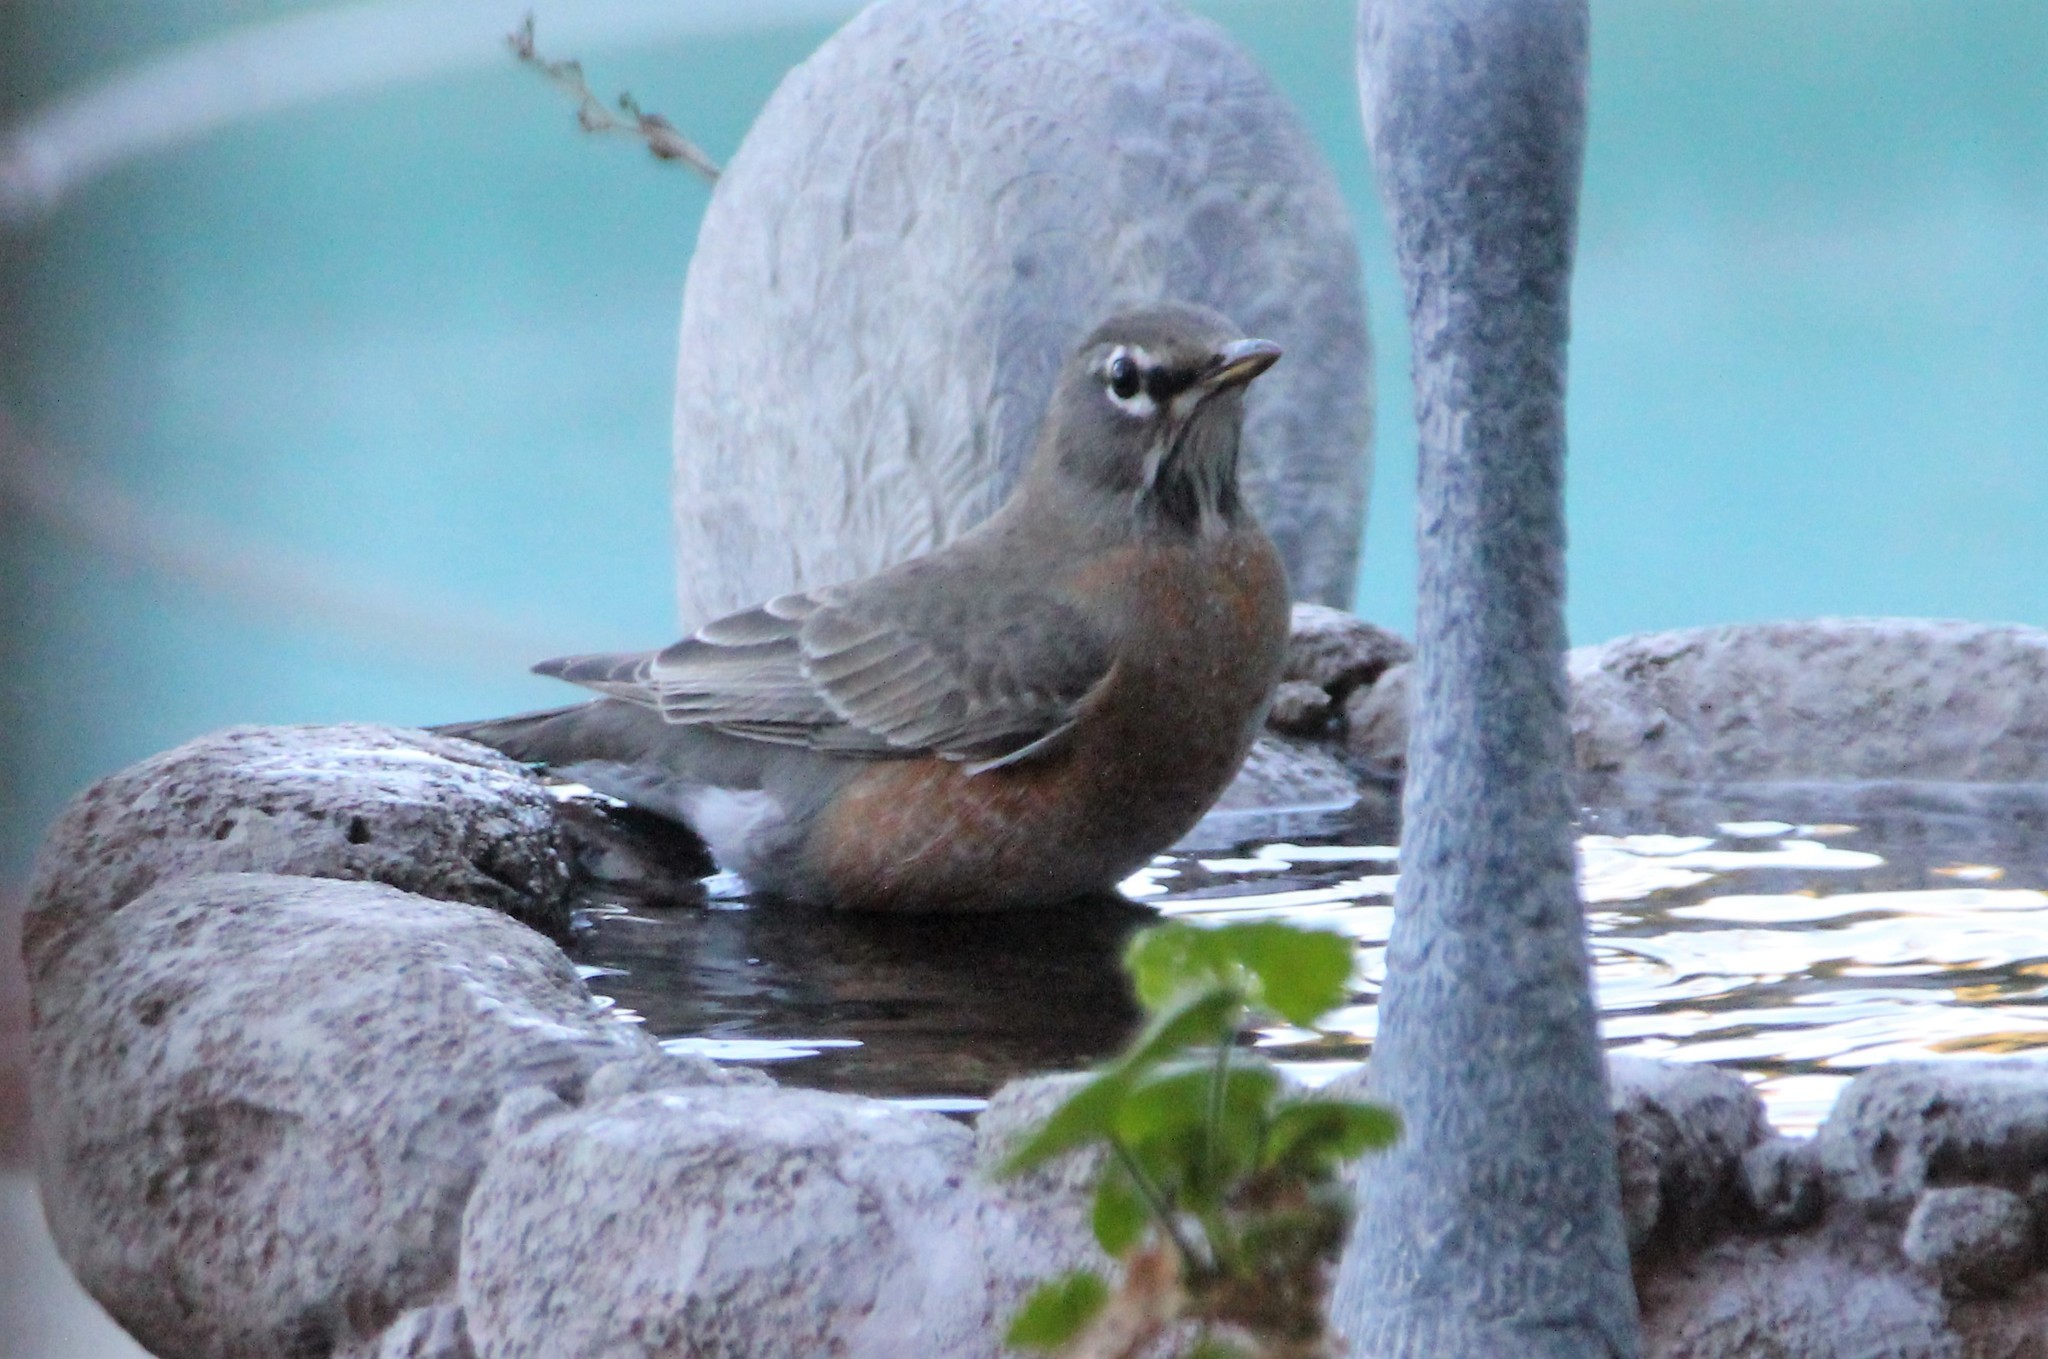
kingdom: Animalia
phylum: Chordata
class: Aves
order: Passeriformes
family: Turdidae
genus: Turdus
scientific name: Turdus migratorius
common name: American robin
